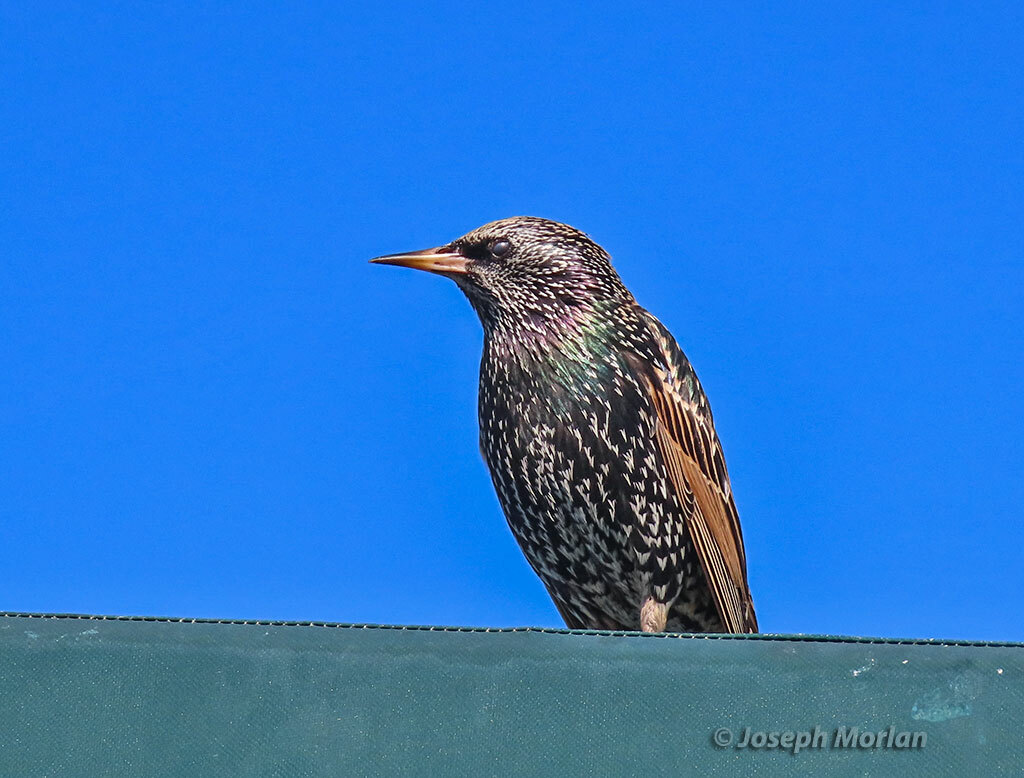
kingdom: Animalia
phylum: Chordata
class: Aves
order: Passeriformes
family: Sturnidae
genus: Sturnus
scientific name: Sturnus vulgaris
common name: Common starling
